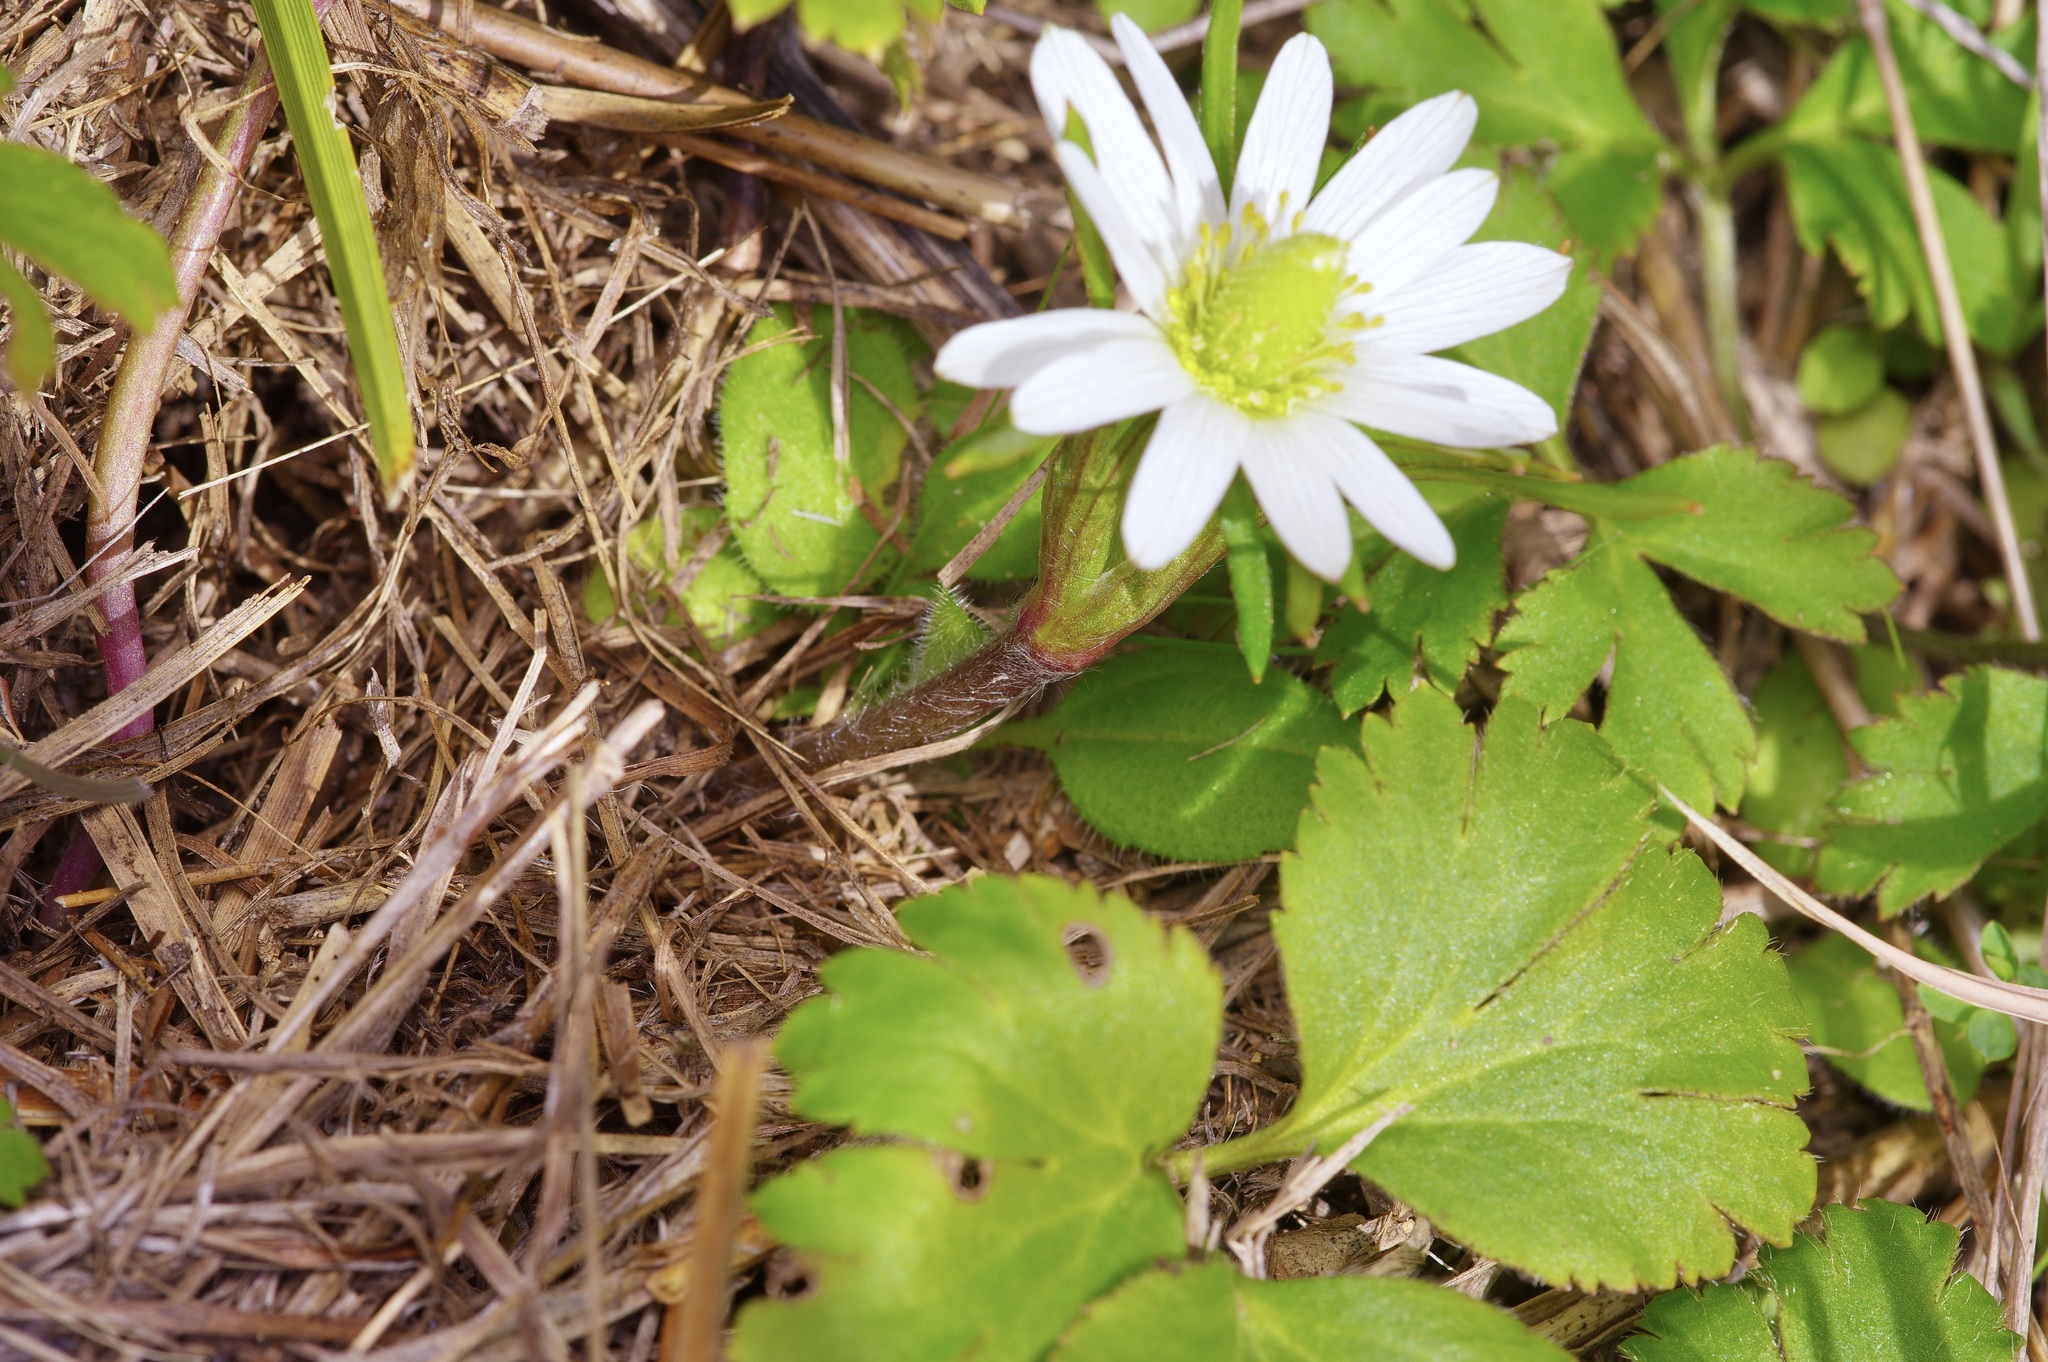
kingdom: Plantae
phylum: Tracheophyta
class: Magnoliopsida
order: Ranunculales
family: Ranunculaceae
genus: Anemone
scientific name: Anemone berlandieri
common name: Ten-petal anemone
